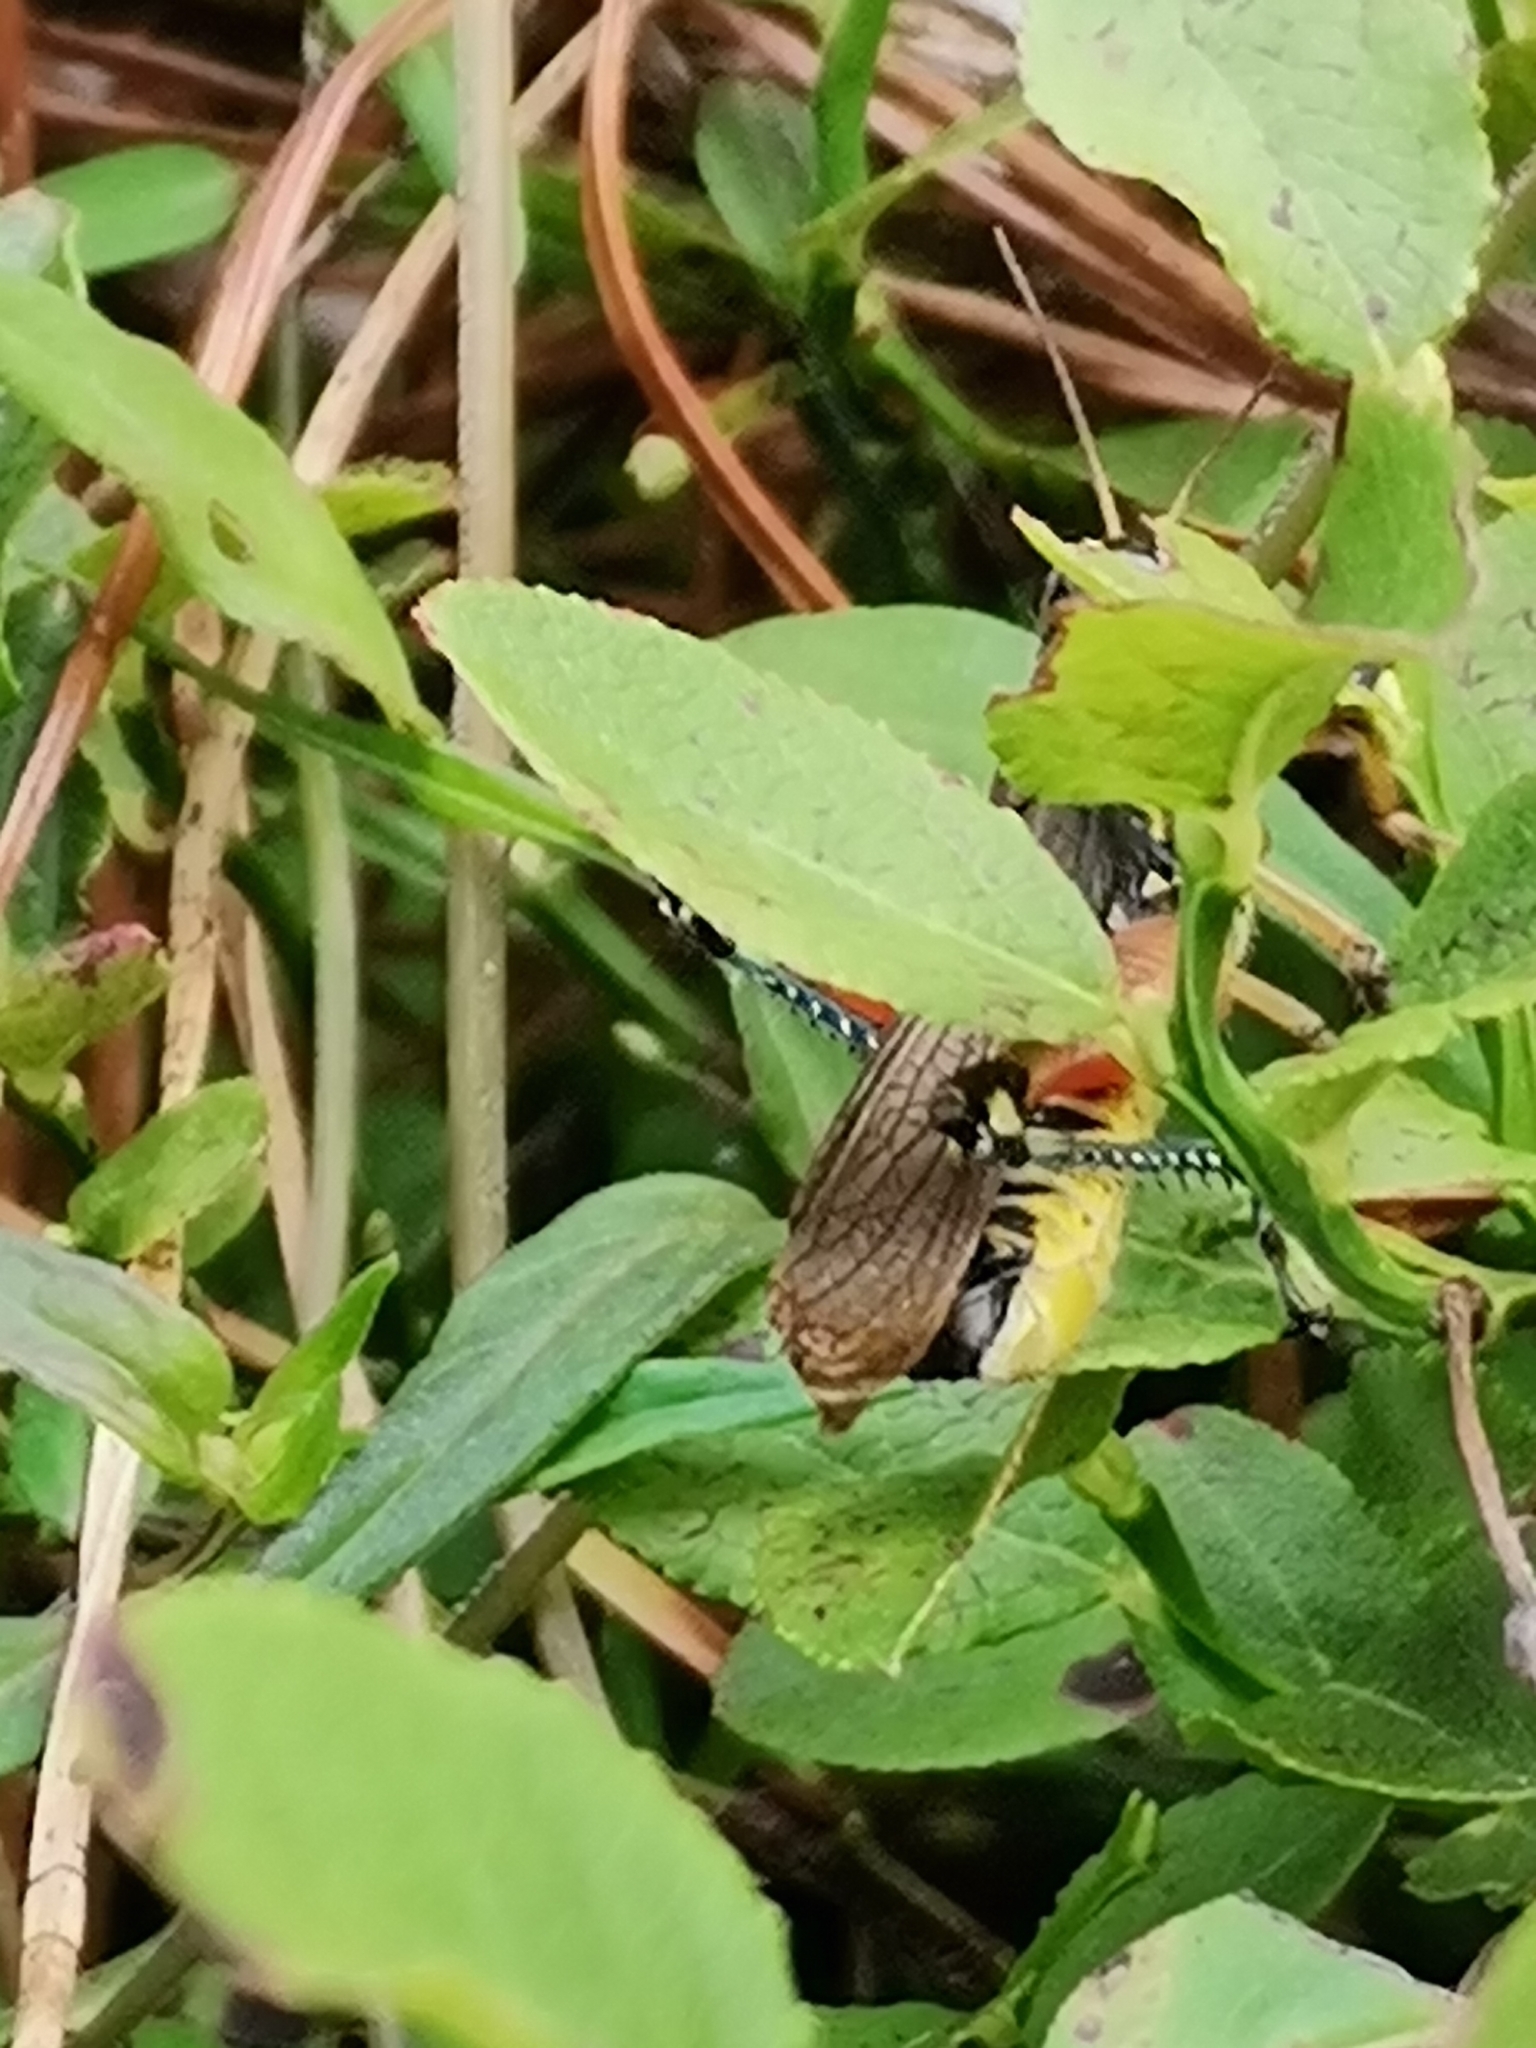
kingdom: Animalia
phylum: Arthropoda
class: Insecta
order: Orthoptera
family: Acrididae
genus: Podisma
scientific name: Podisma pedestris
